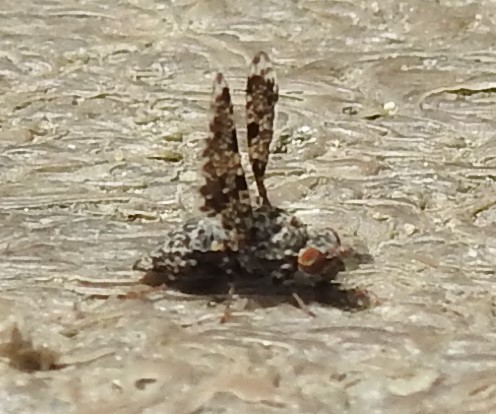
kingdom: Animalia
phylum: Arthropoda
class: Insecta
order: Diptera
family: Ulidiidae
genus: Callopistromyia
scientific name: Callopistromyia annulipes
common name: Peacock fly
